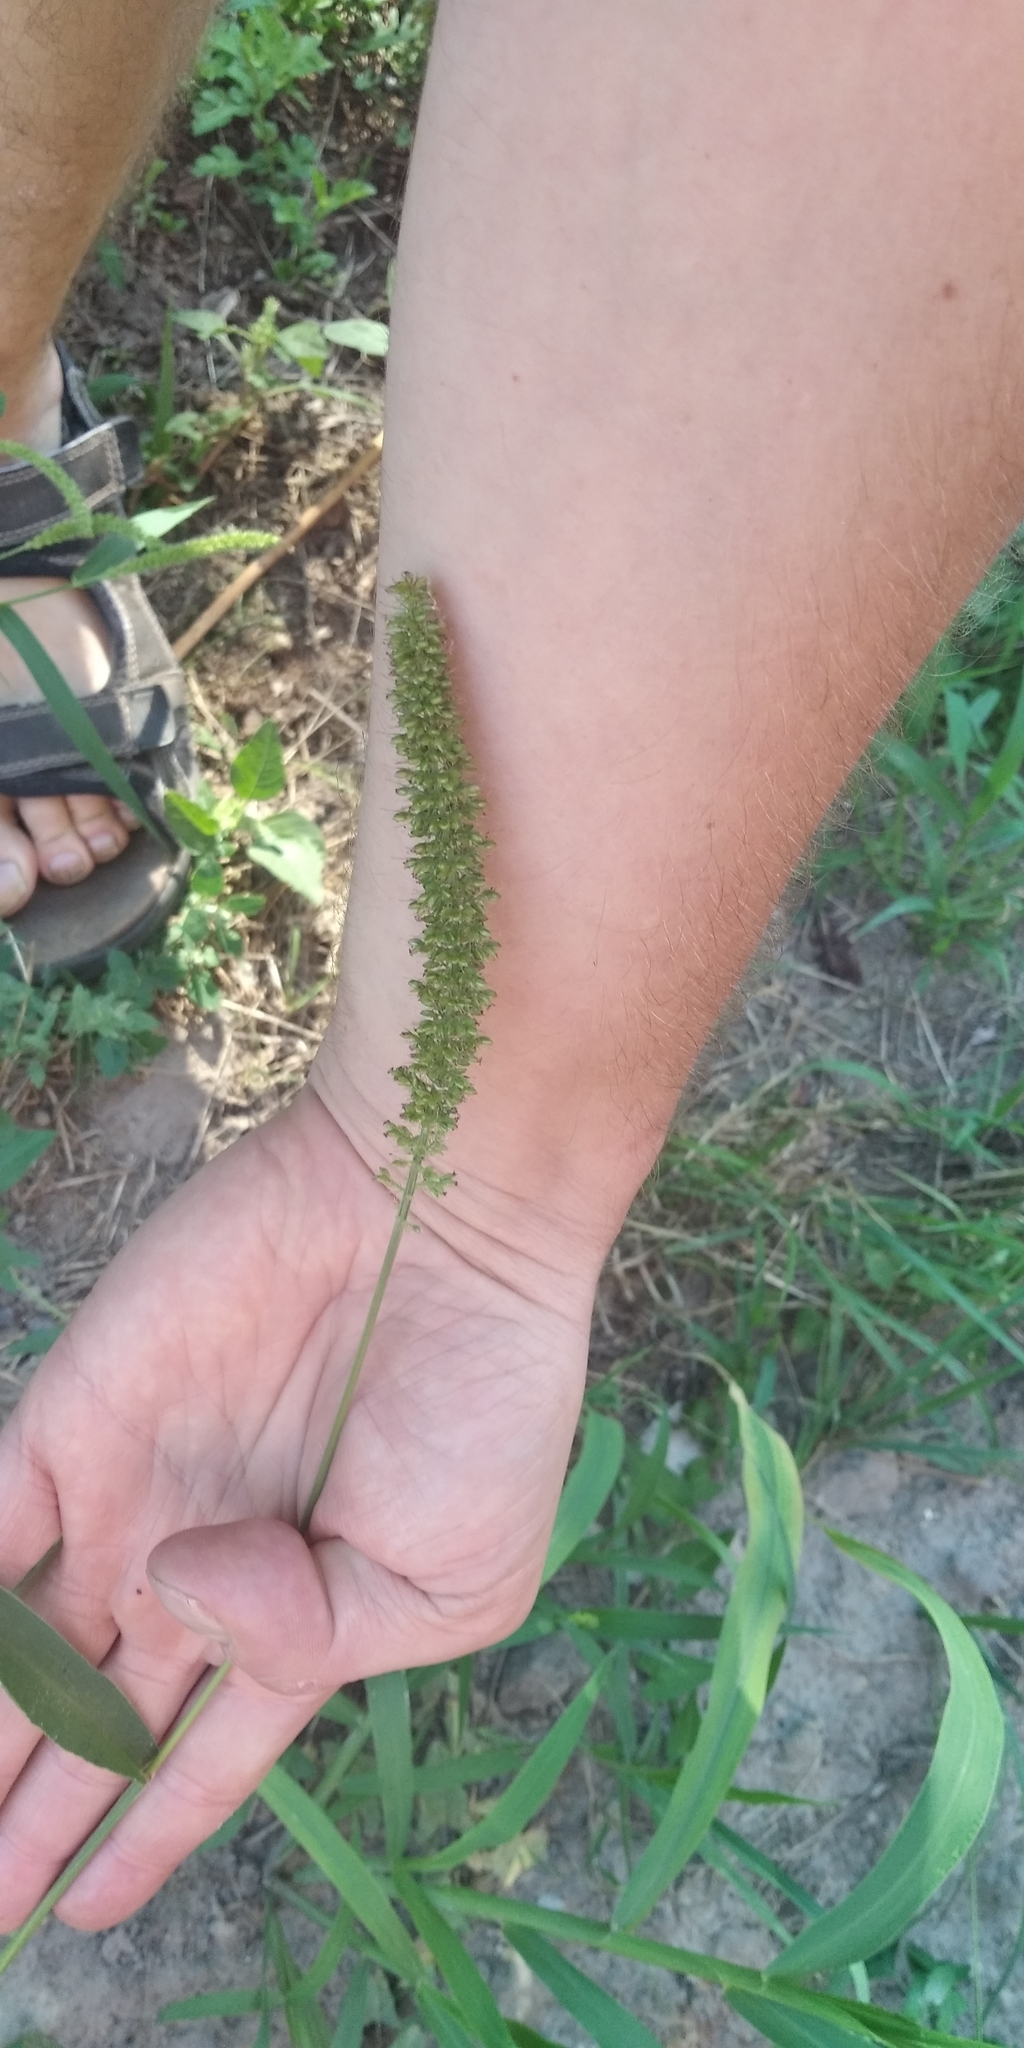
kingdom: Plantae
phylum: Tracheophyta
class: Liliopsida
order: Poales
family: Poaceae
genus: Setaria
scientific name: Setaria verticillata
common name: Hooked bristlegrass
